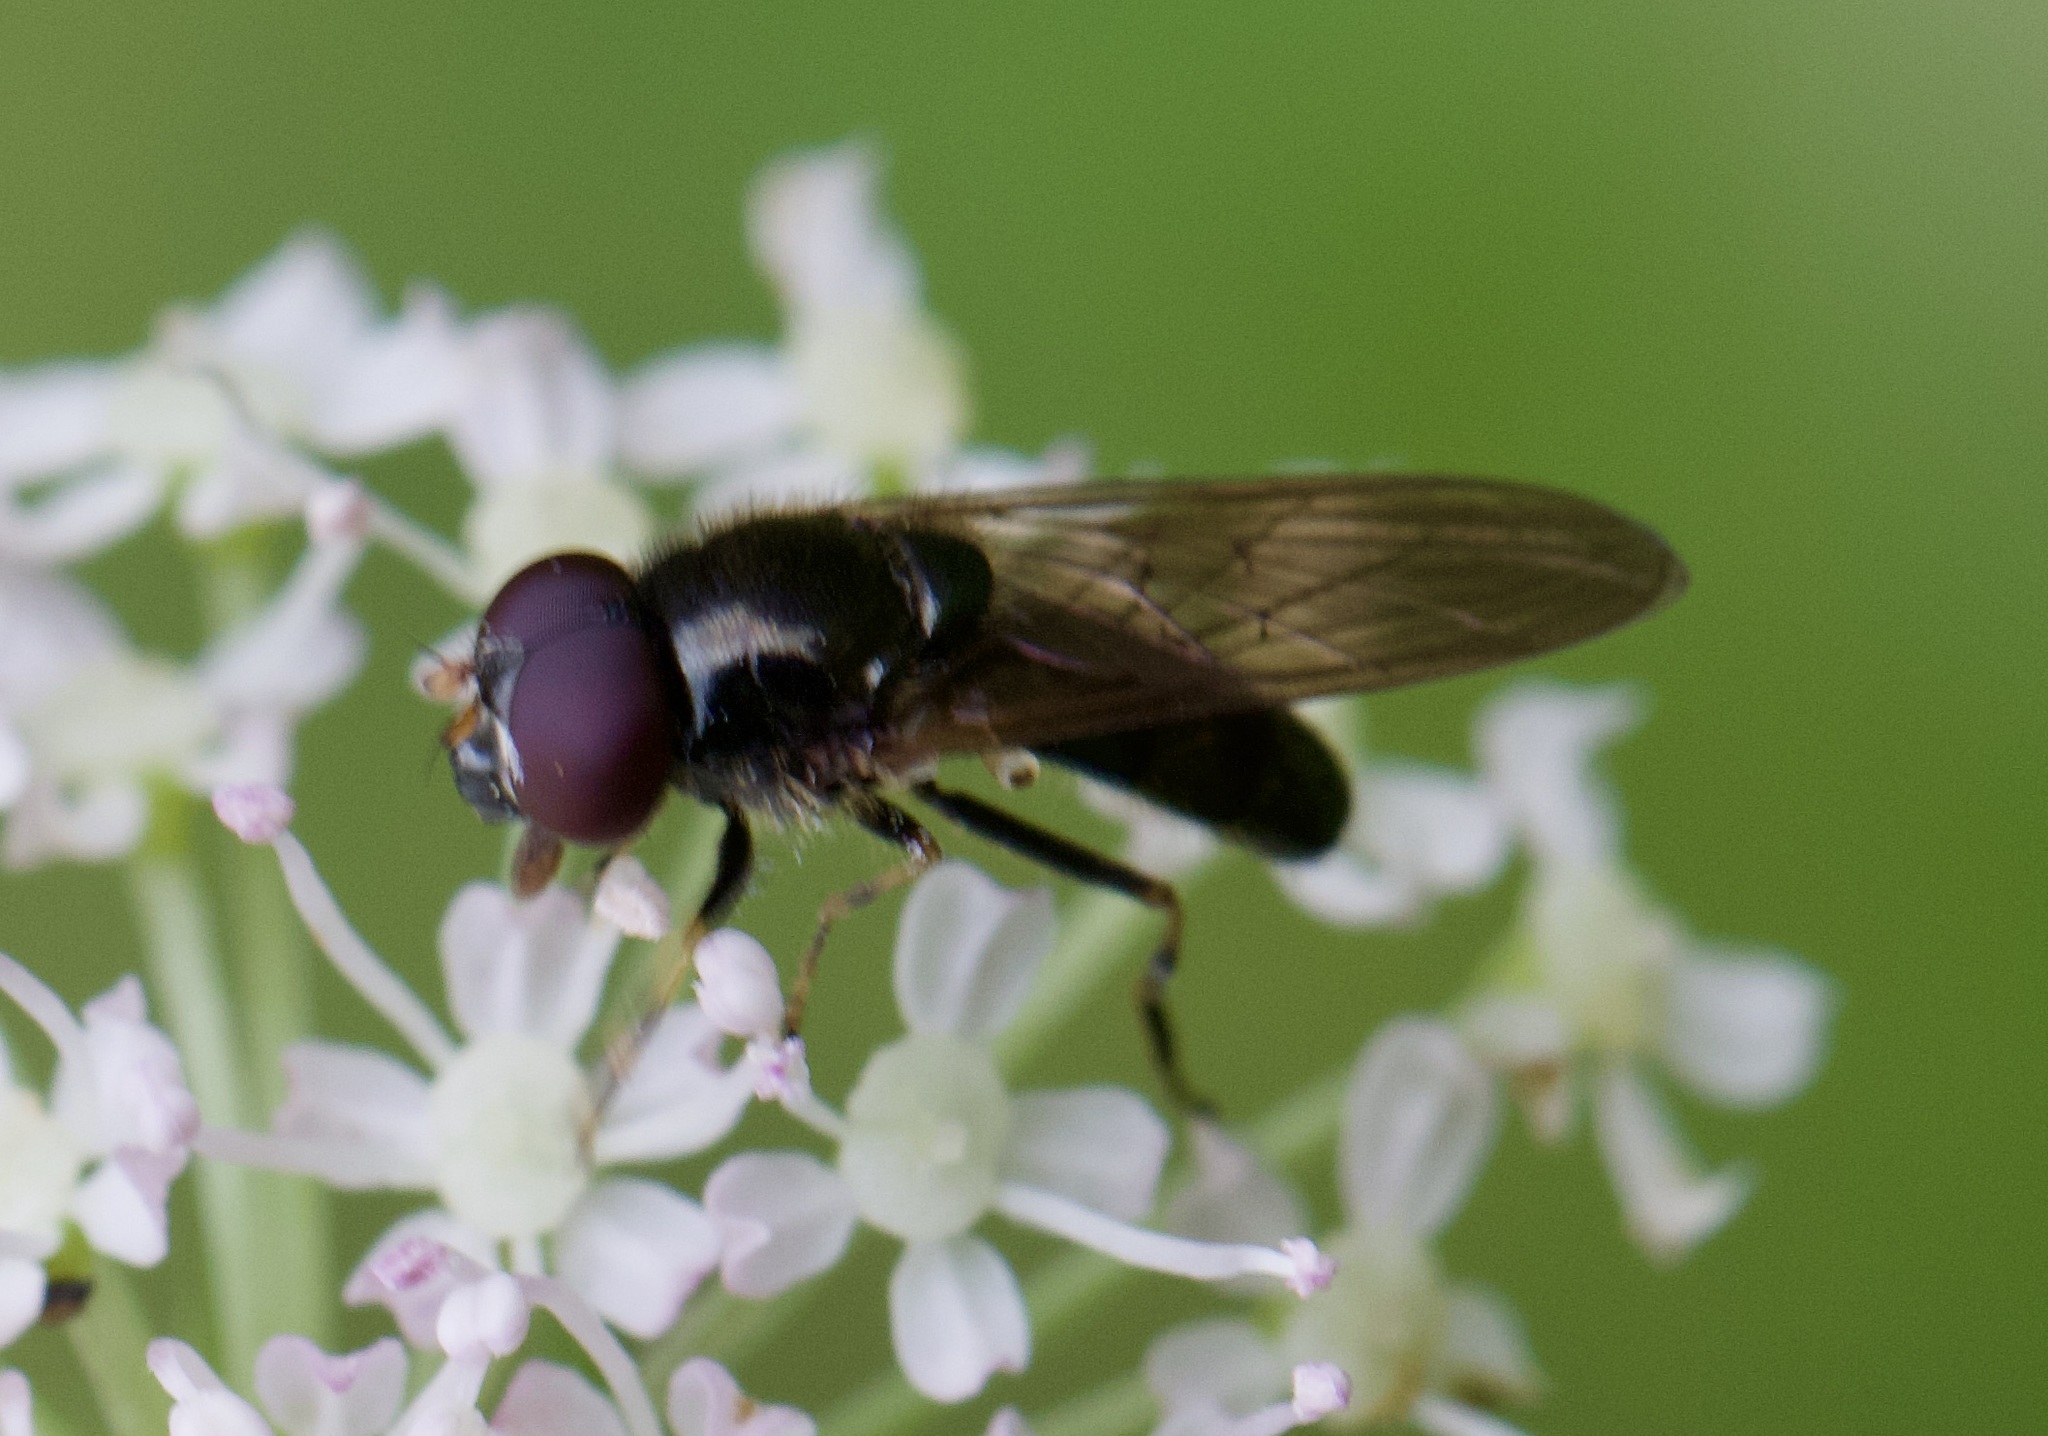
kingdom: Animalia
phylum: Arthropoda
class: Insecta
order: Diptera
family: Syrphidae
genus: Cheilosia
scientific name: Cheilosia pagana
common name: Hover fly
